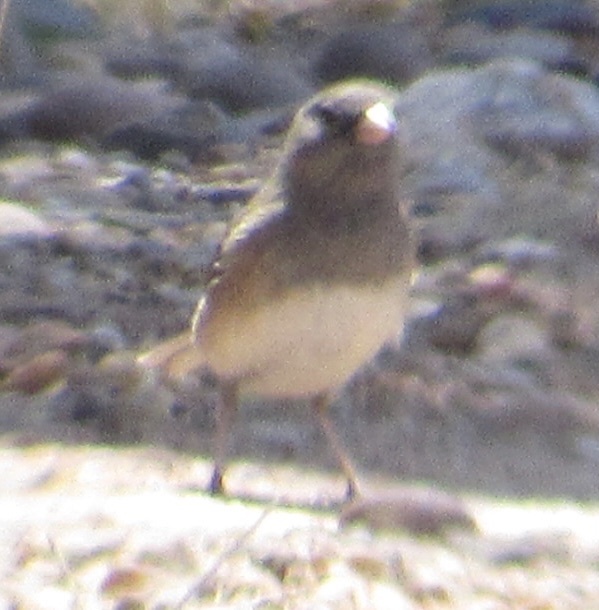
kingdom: Animalia
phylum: Chordata
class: Aves
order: Passeriformes
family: Passerellidae
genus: Junco
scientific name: Junco hyemalis
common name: Dark-eyed junco
